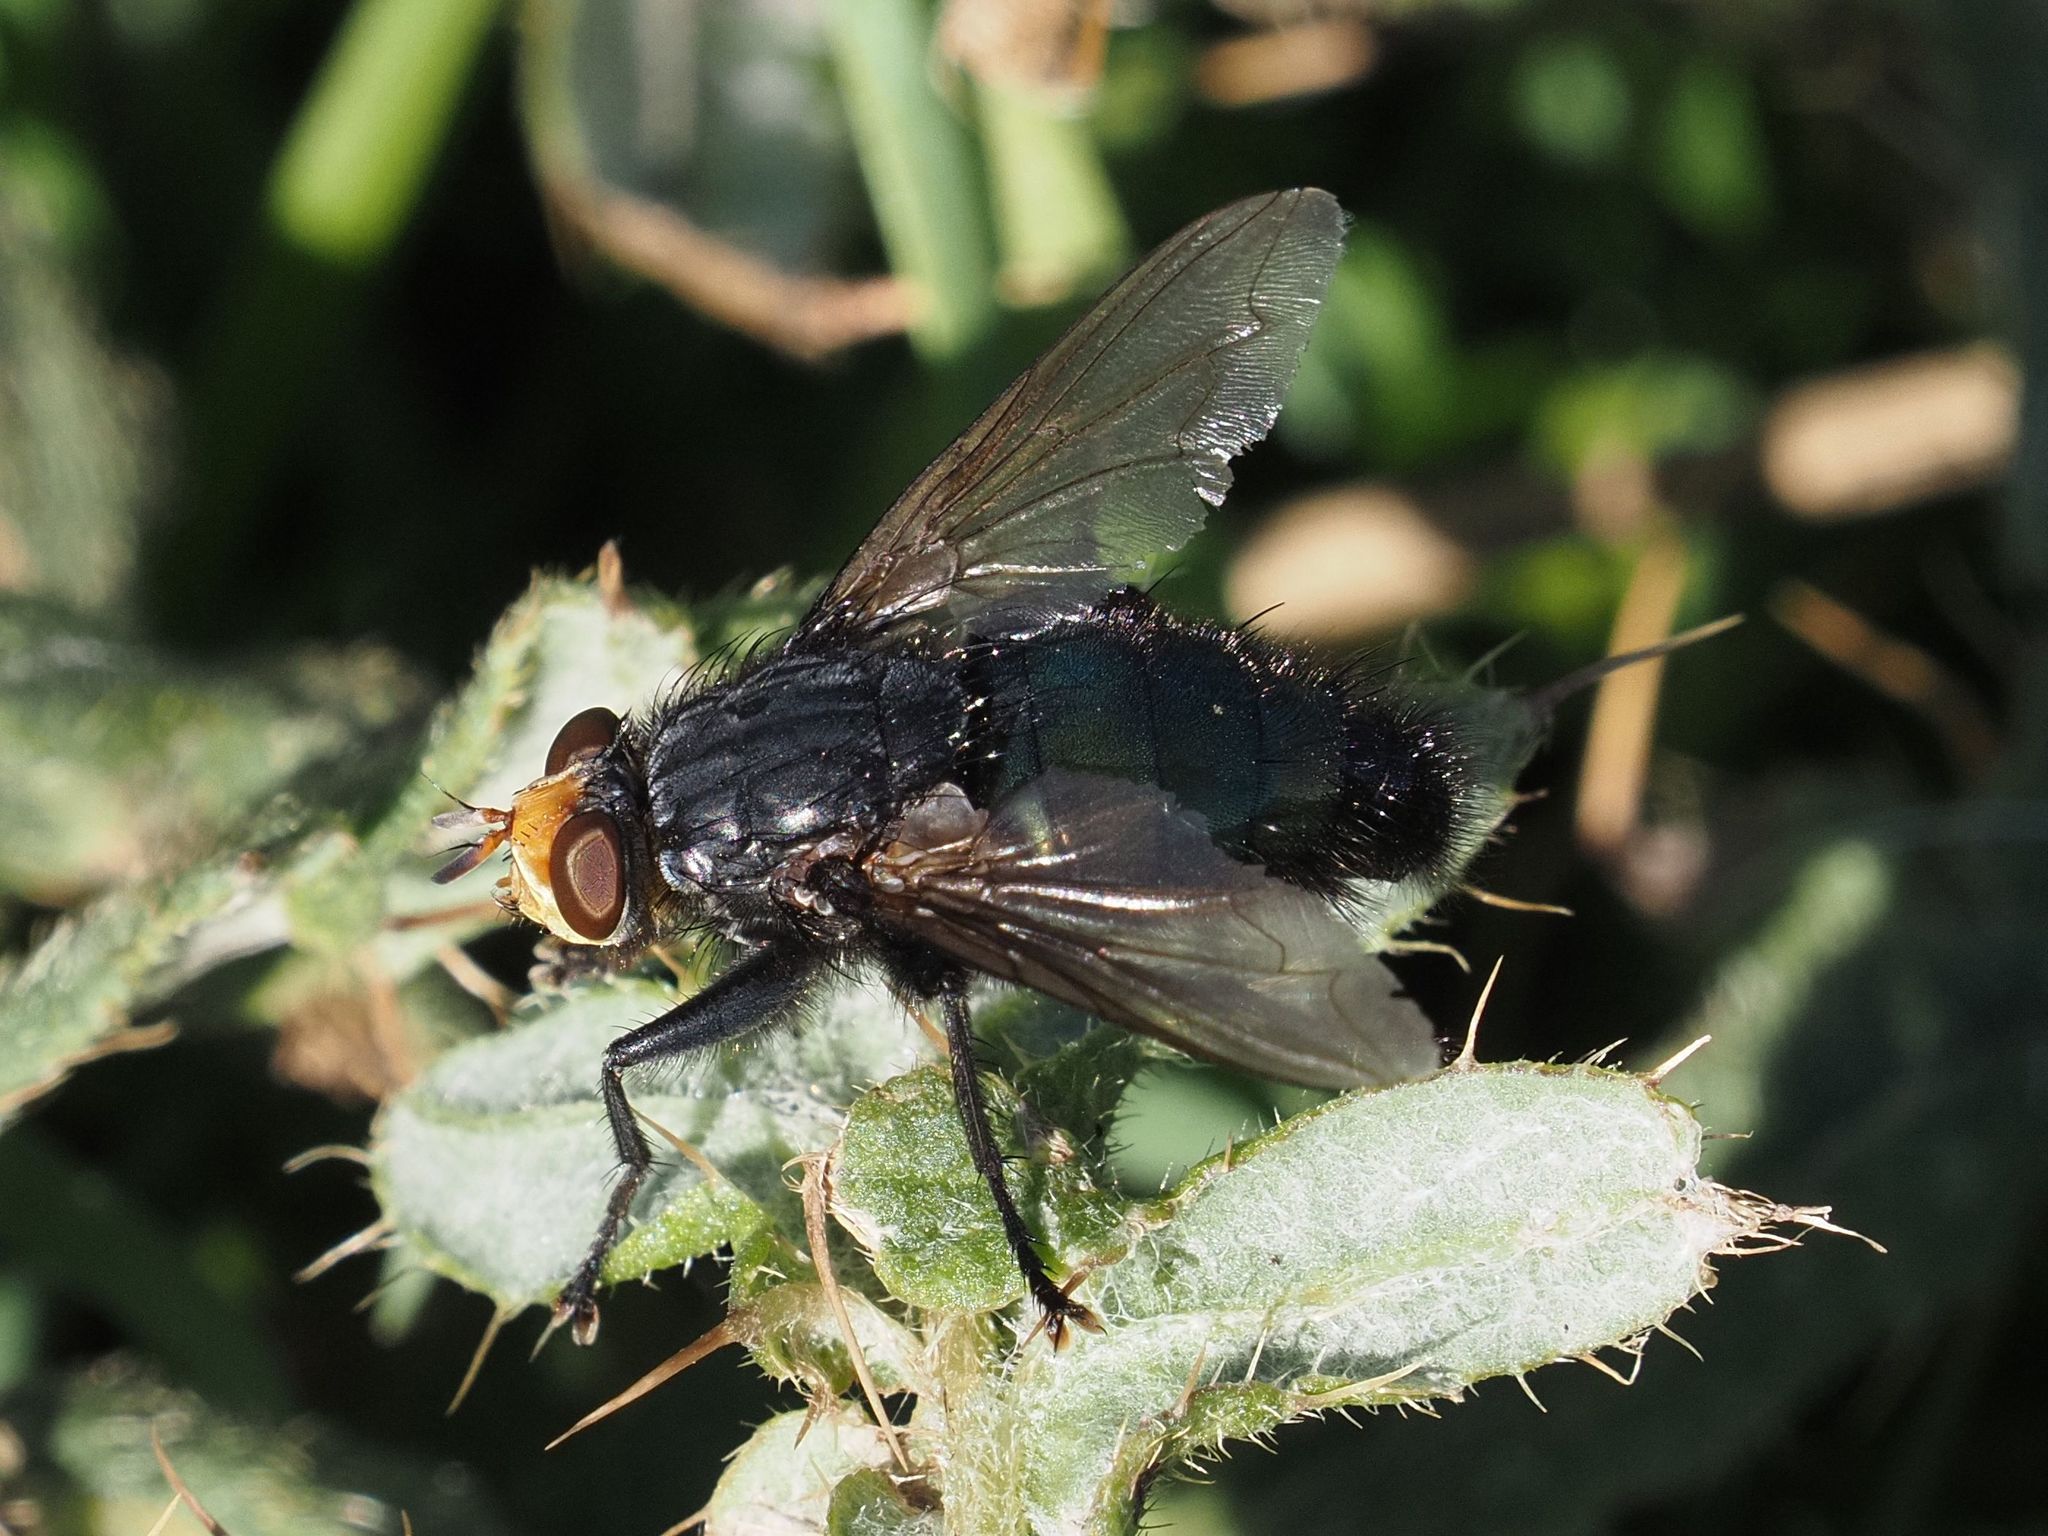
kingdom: Animalia
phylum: Arthropoda
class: Insecta
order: Diptera
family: Calliphoridae
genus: Cynomya
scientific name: Cynomya mortuorum
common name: Bluebottle blow fly
